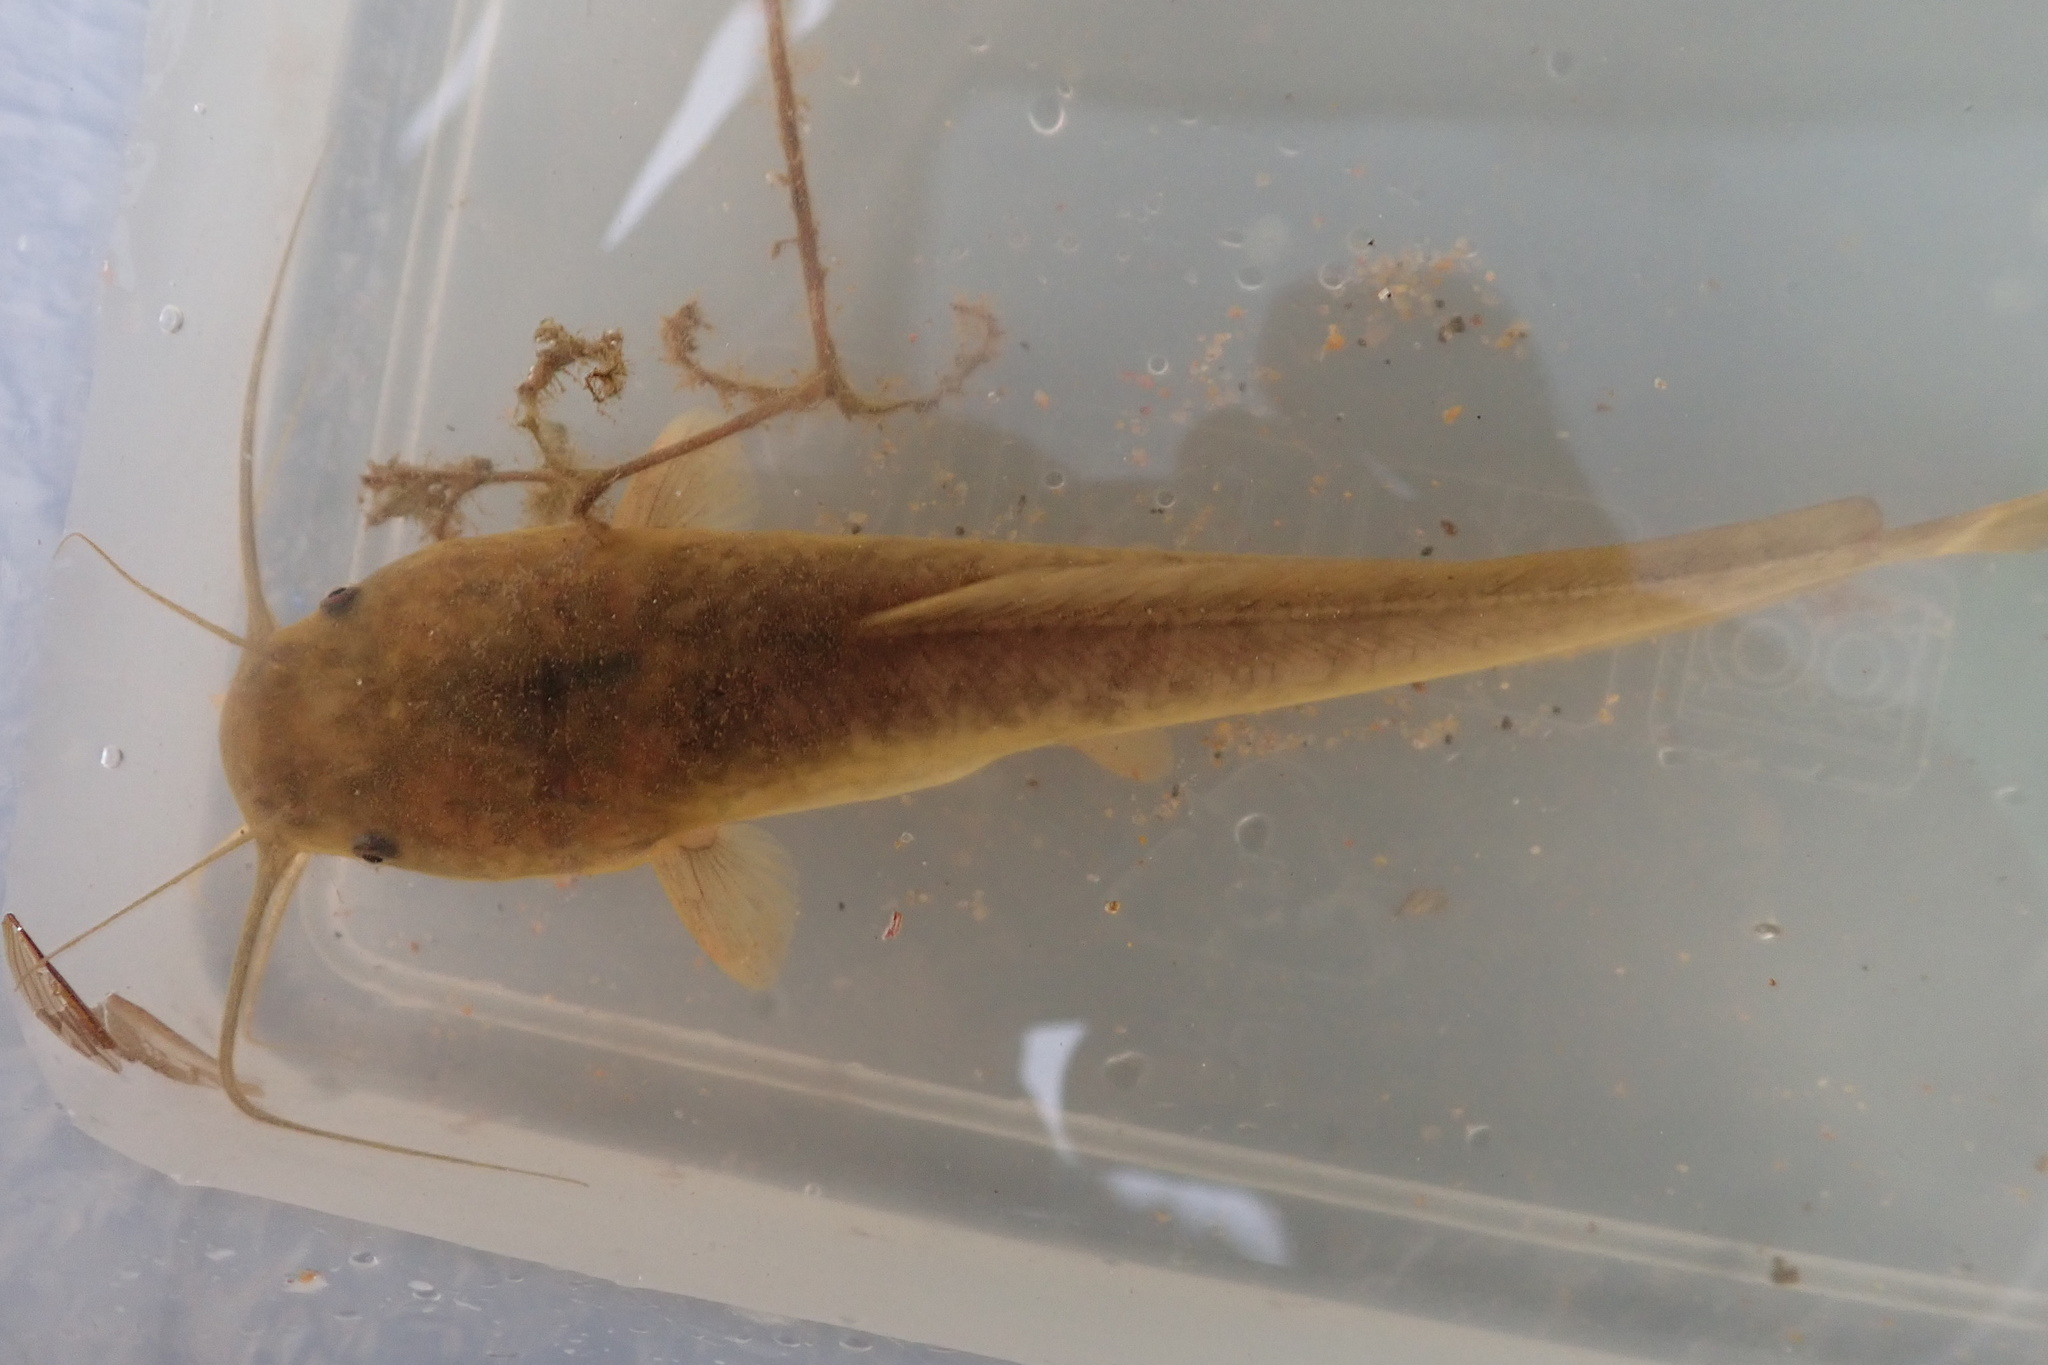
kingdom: Animalia
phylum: Chordata
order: Siluriformes
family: Clariidae
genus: Clarias
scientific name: Clarias gariepinus
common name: African catfish
